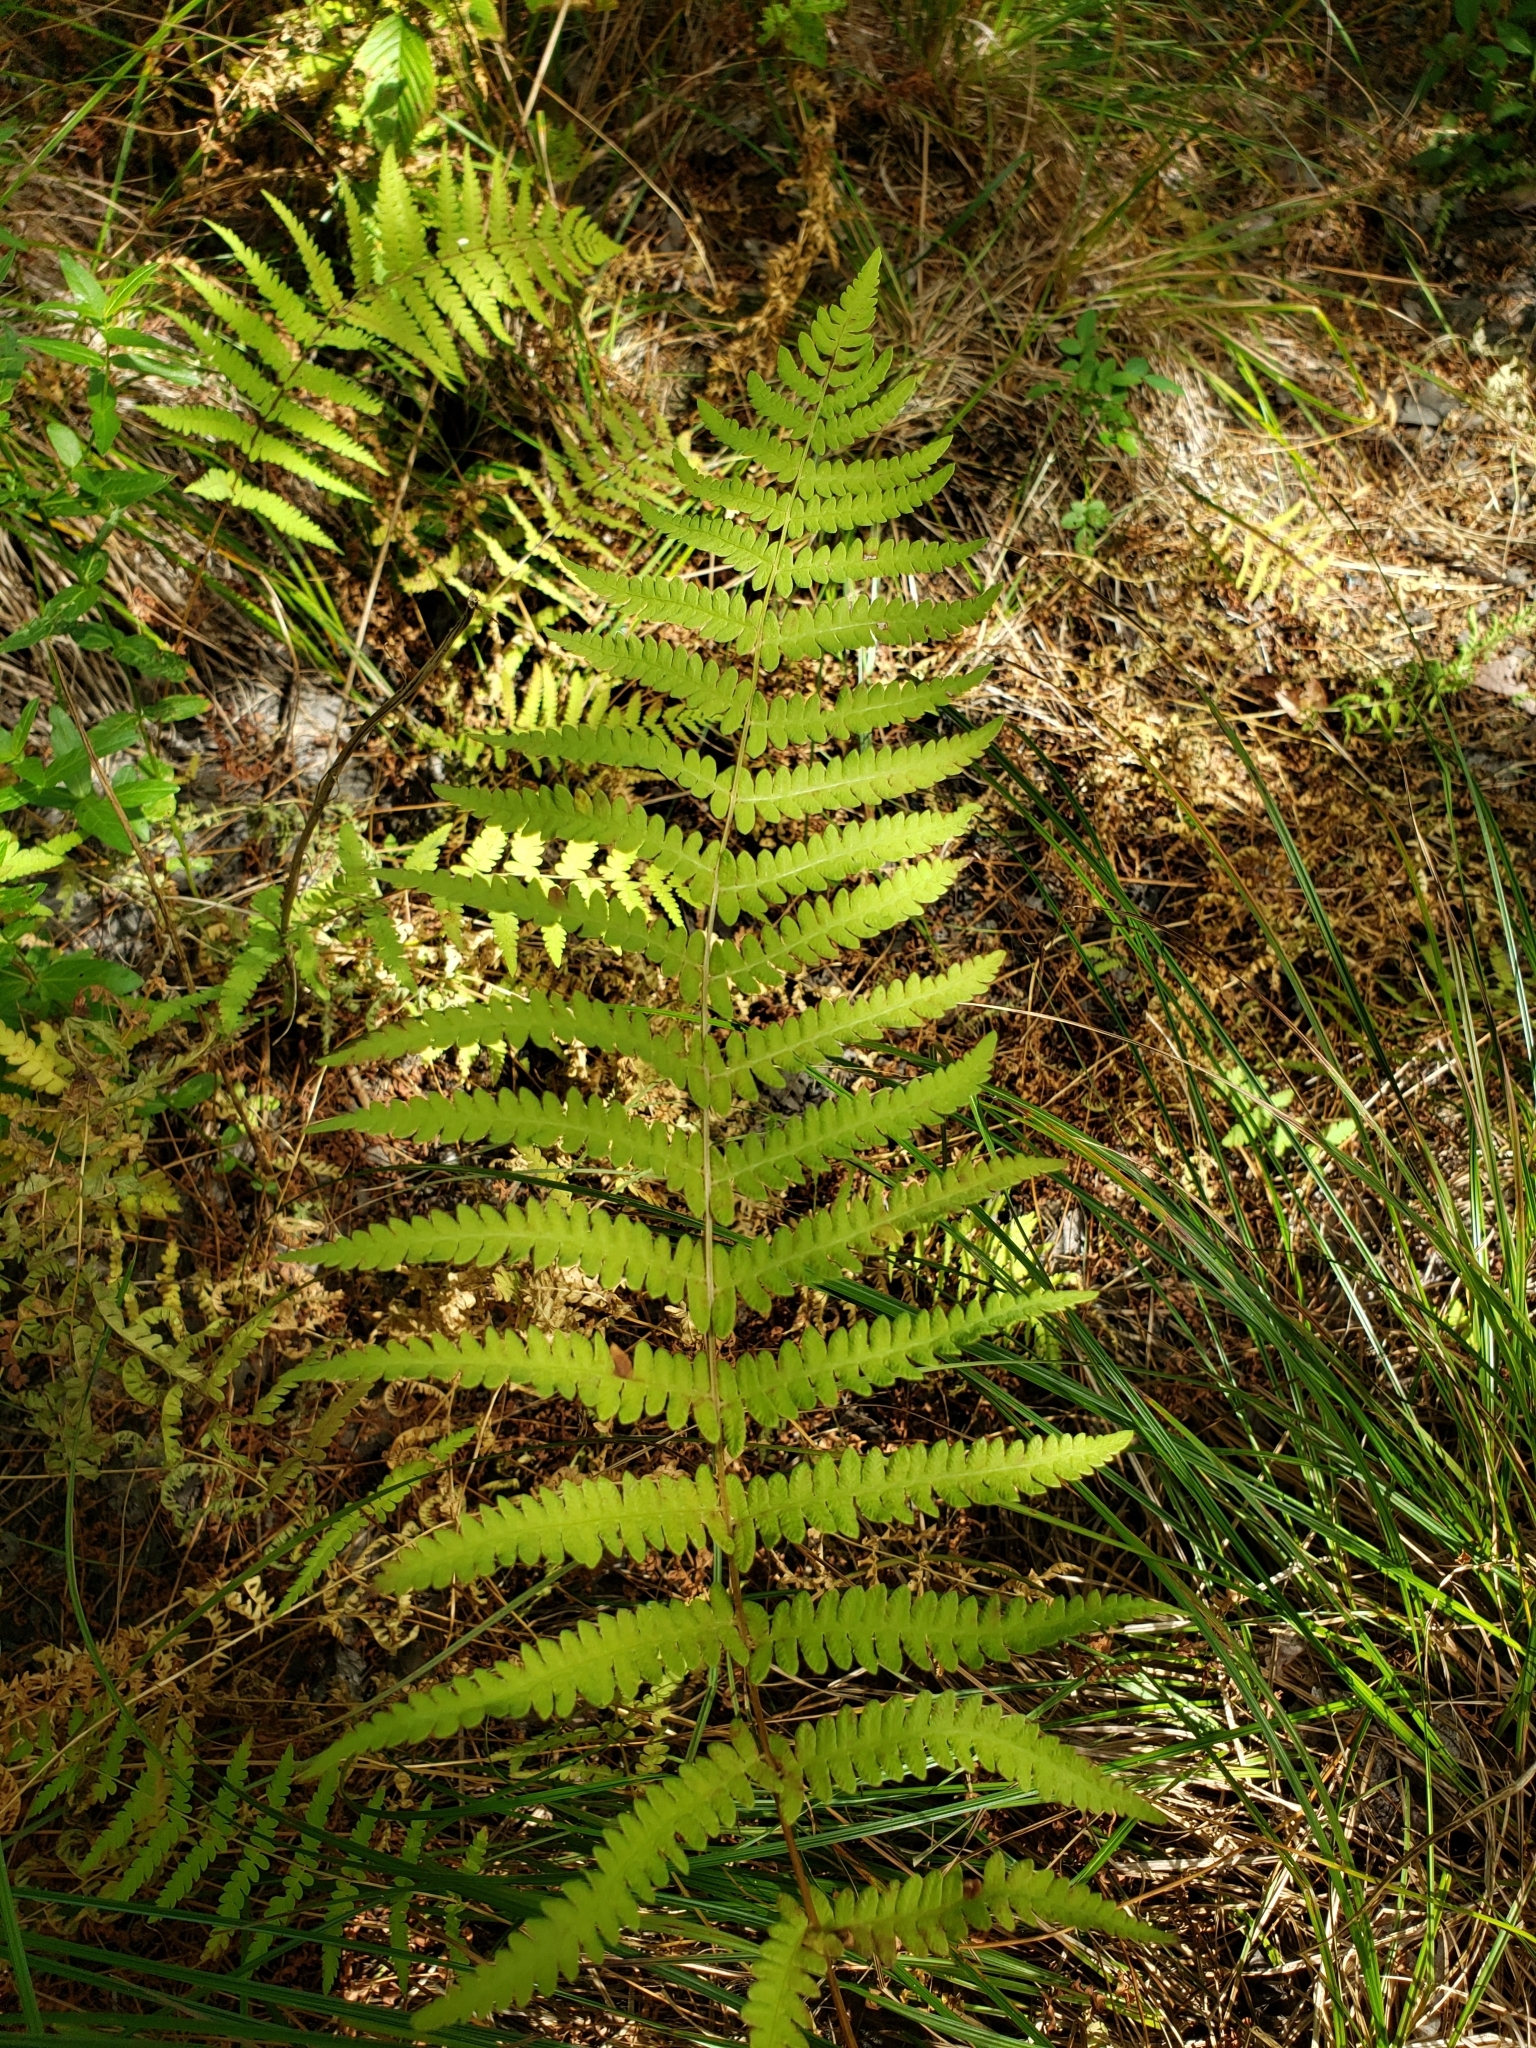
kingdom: Plantae
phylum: Tracheophyta
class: Polypodiopsida
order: Polypodiales
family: Thelypteridaceae
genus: Thelypteris
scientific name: Thelypteris palustris
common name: Marsh fern
